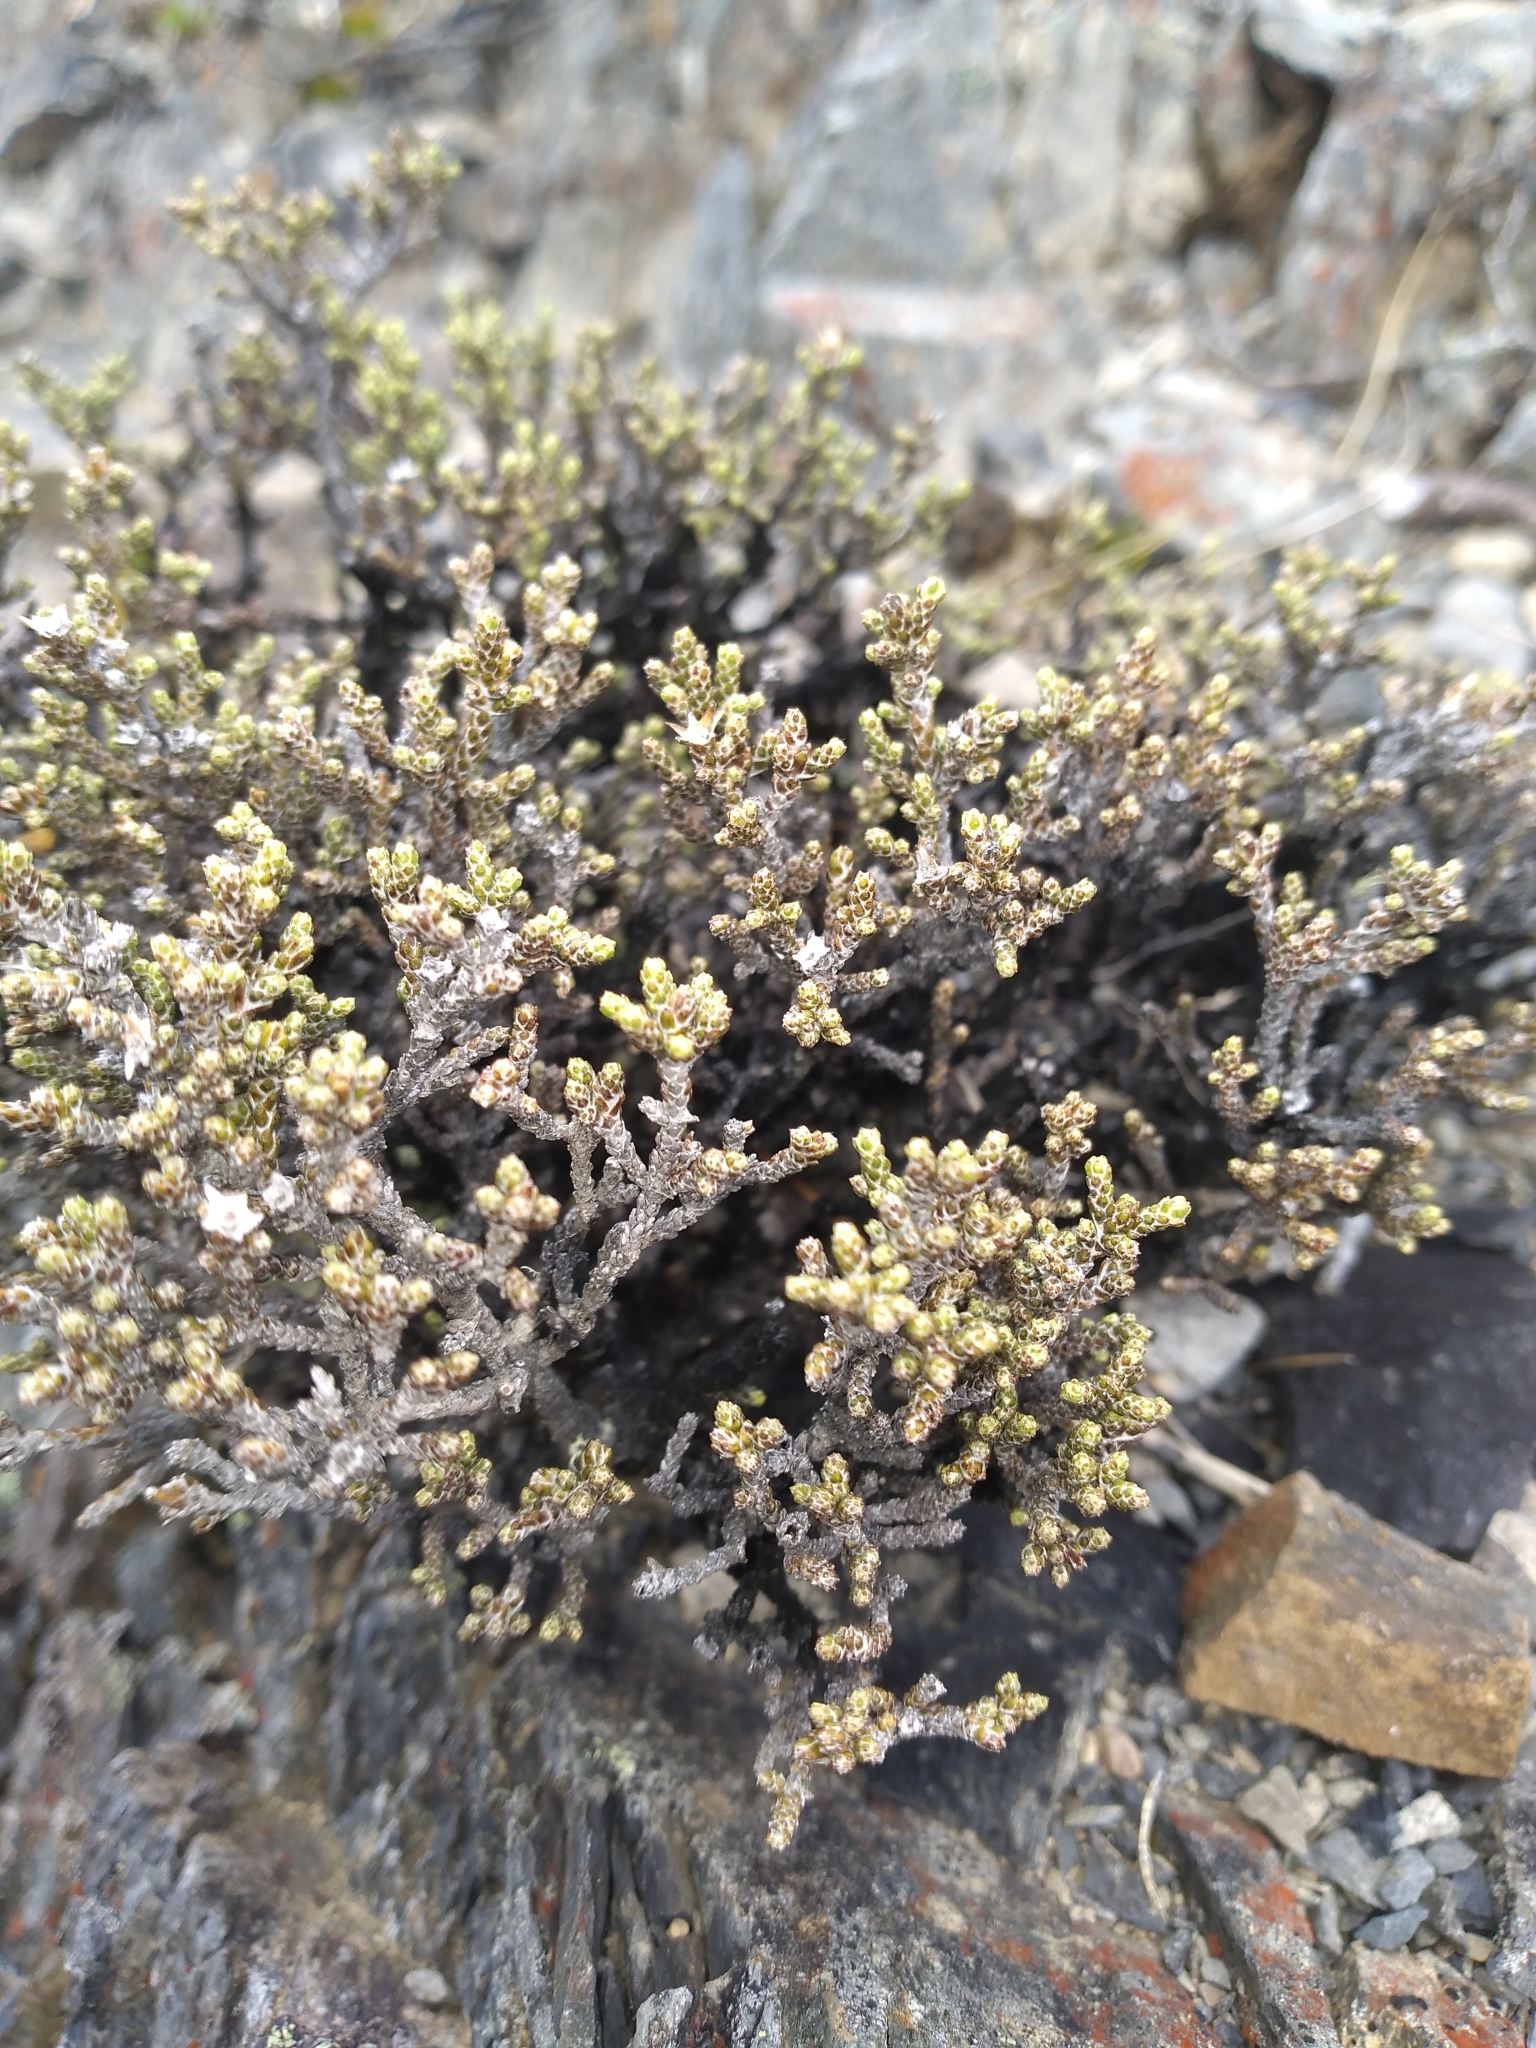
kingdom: Plantae
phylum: Tracheophyta
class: Magnoliopsida
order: Asterales
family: Asteraceae
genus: Ozothamnus
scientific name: Ozothamnus parvifolius
